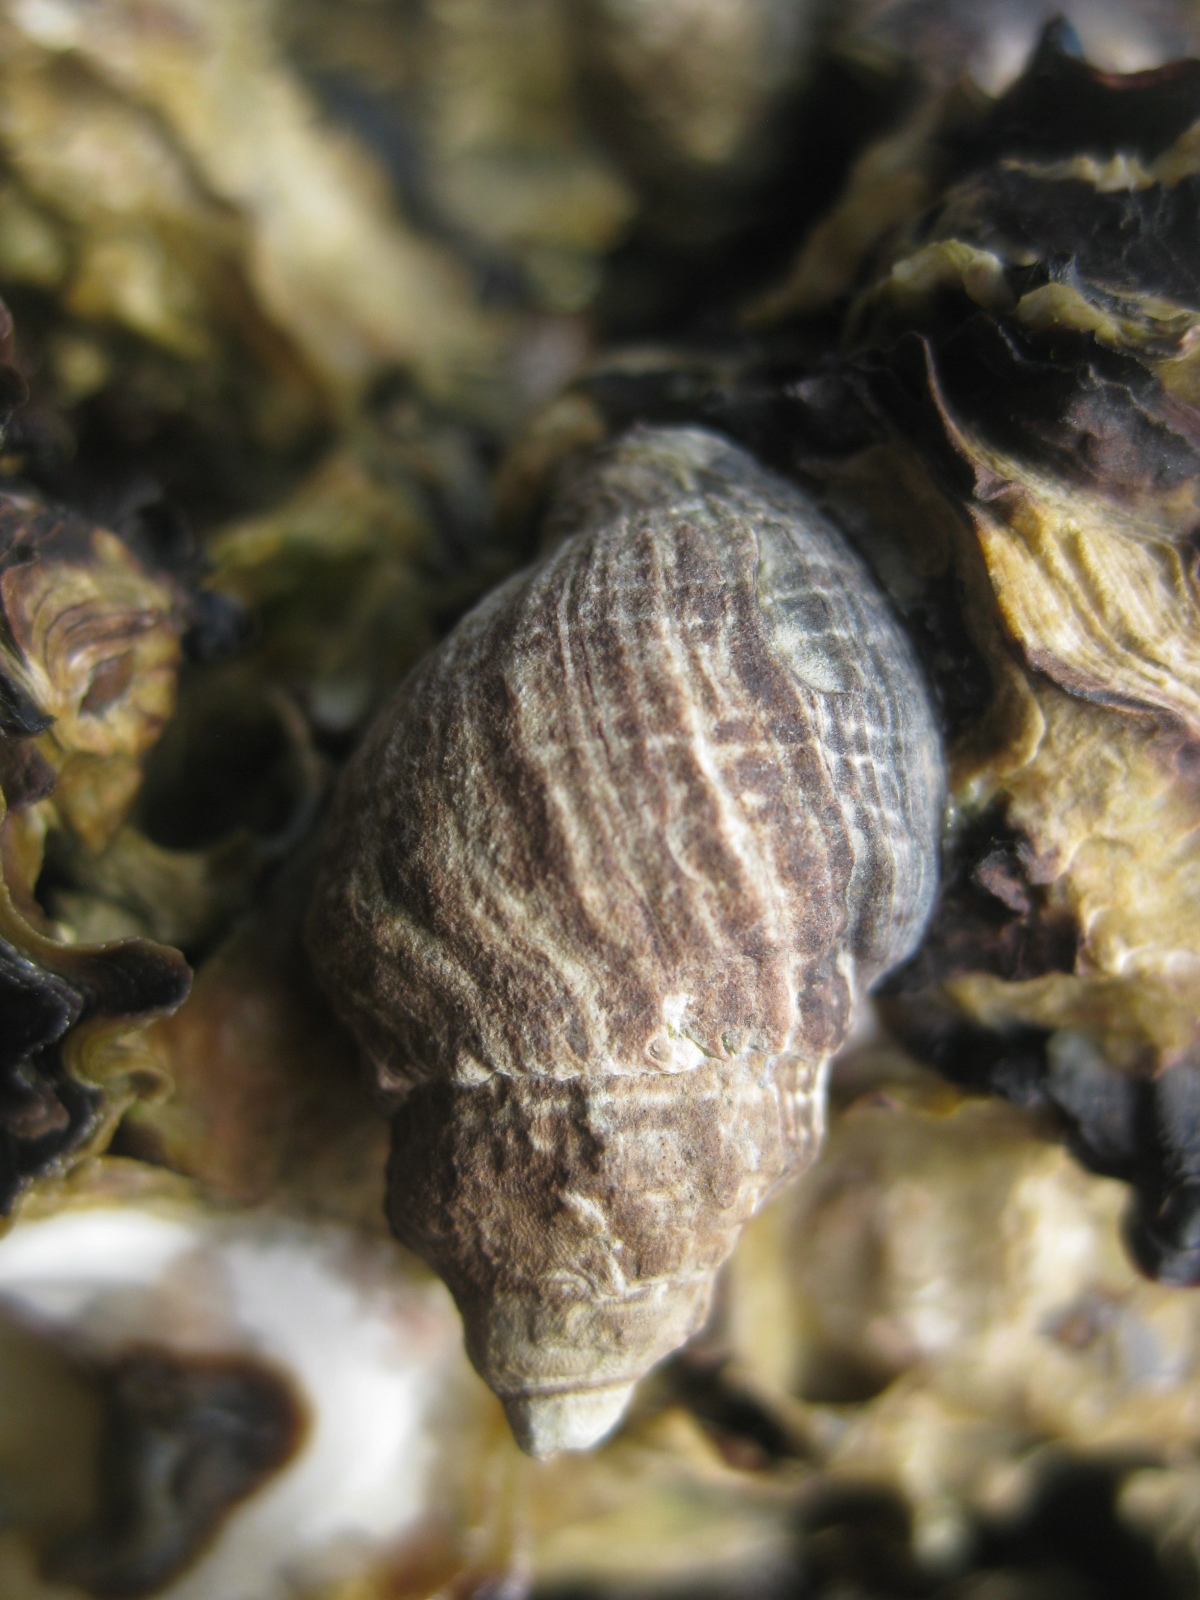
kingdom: Animalia
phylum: Mollusca
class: Gastropoda
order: Neogastropoda
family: Muricidae
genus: Haustrum
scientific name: Haustrum albomarginatum
